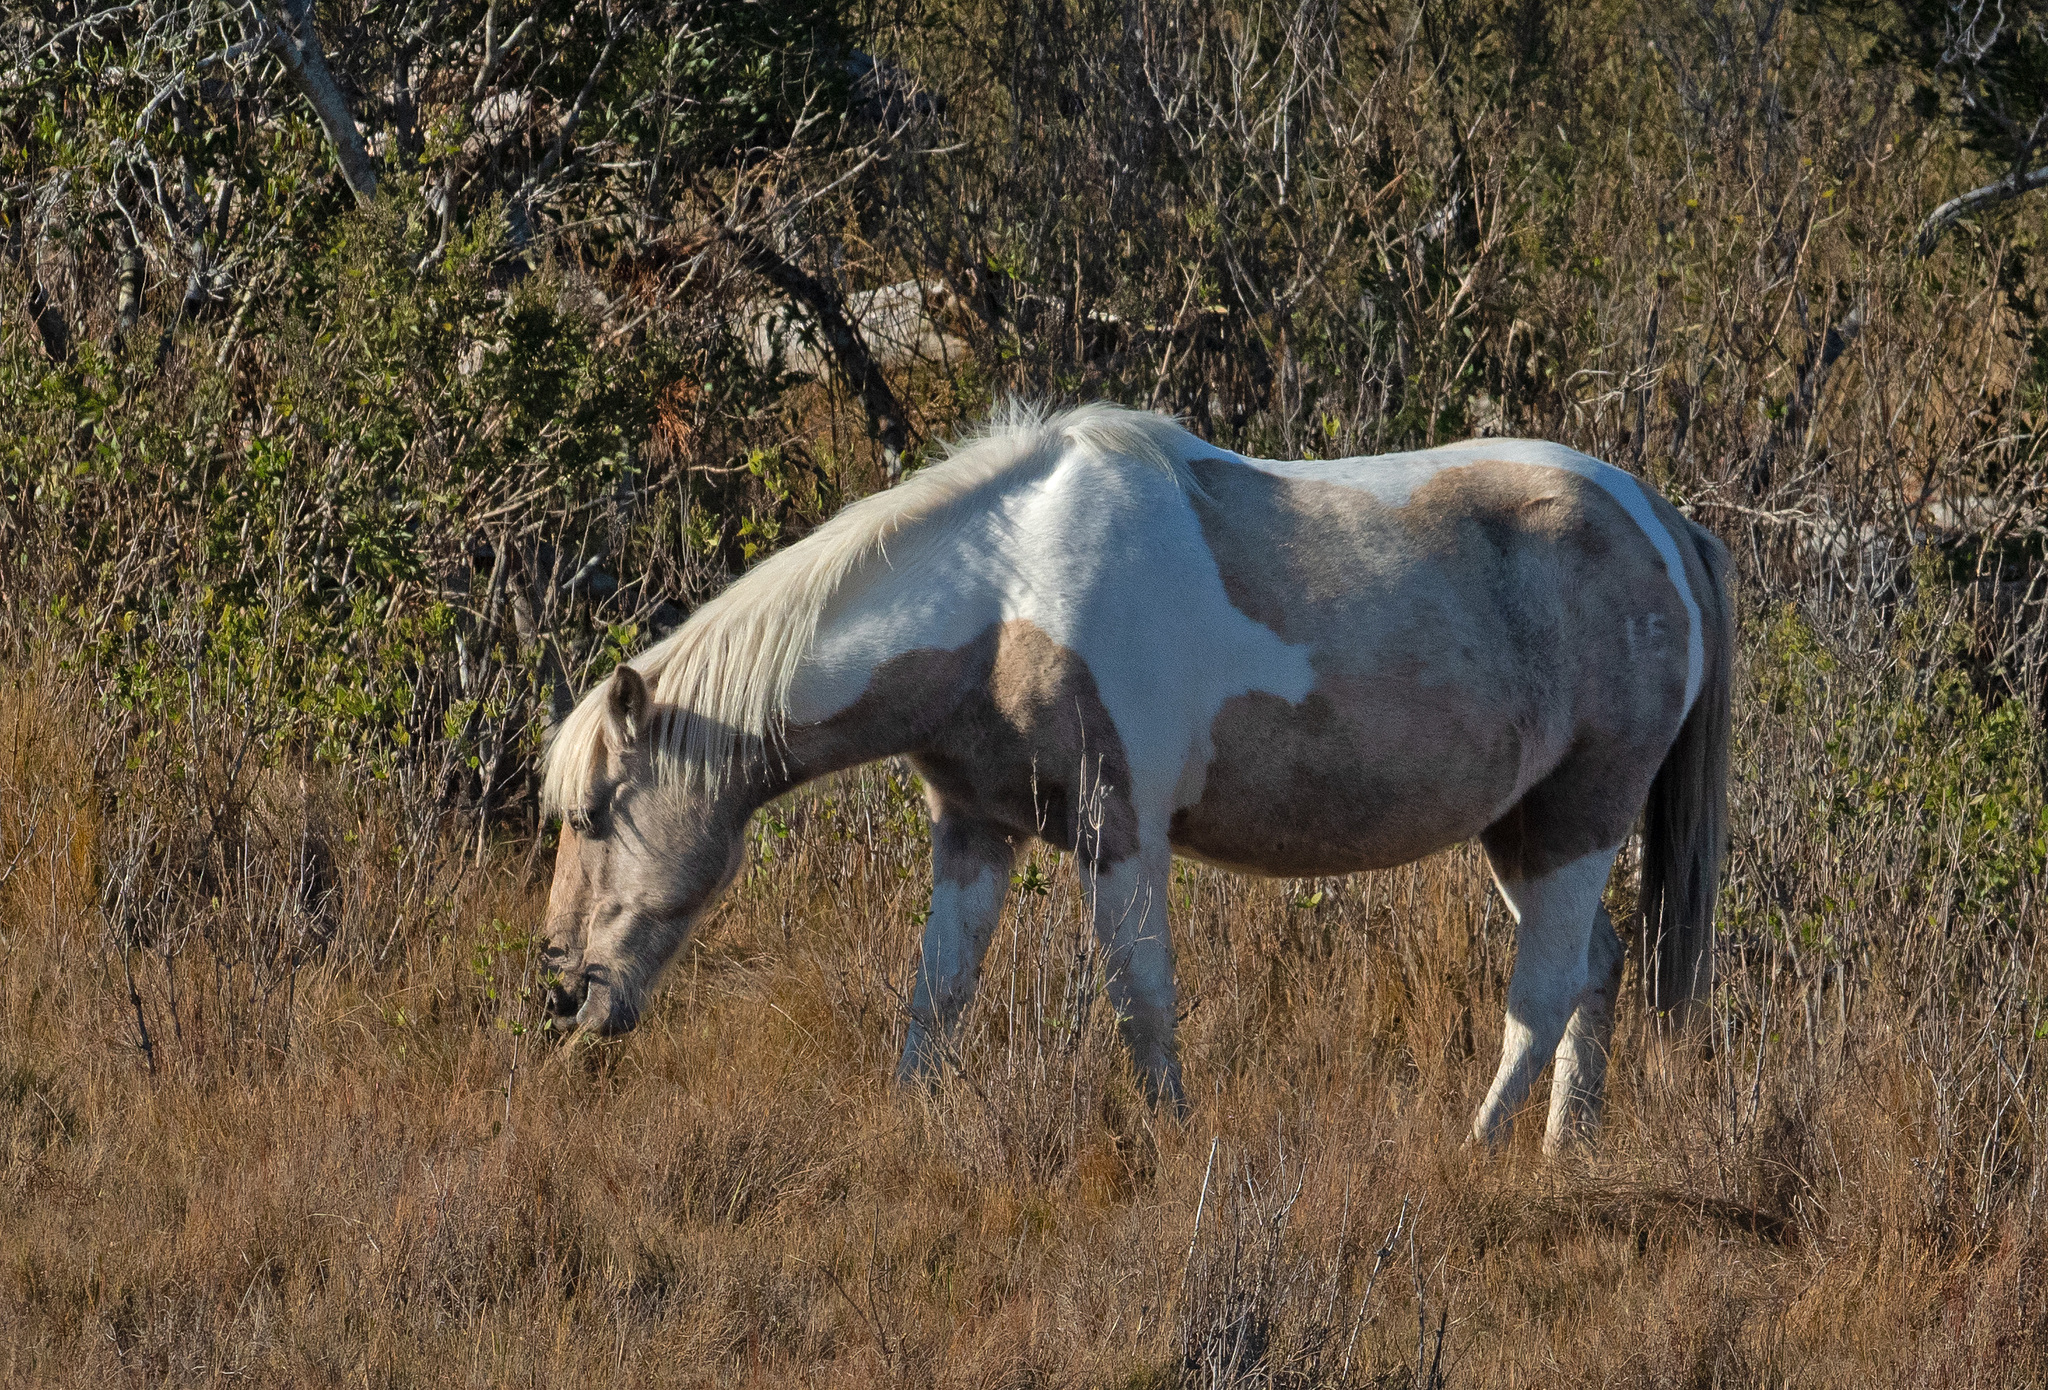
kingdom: Animalia
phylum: Chordata
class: Mammalia
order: Perissodactyla
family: Equidae
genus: Equus
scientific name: Equus caballus
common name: Horse
